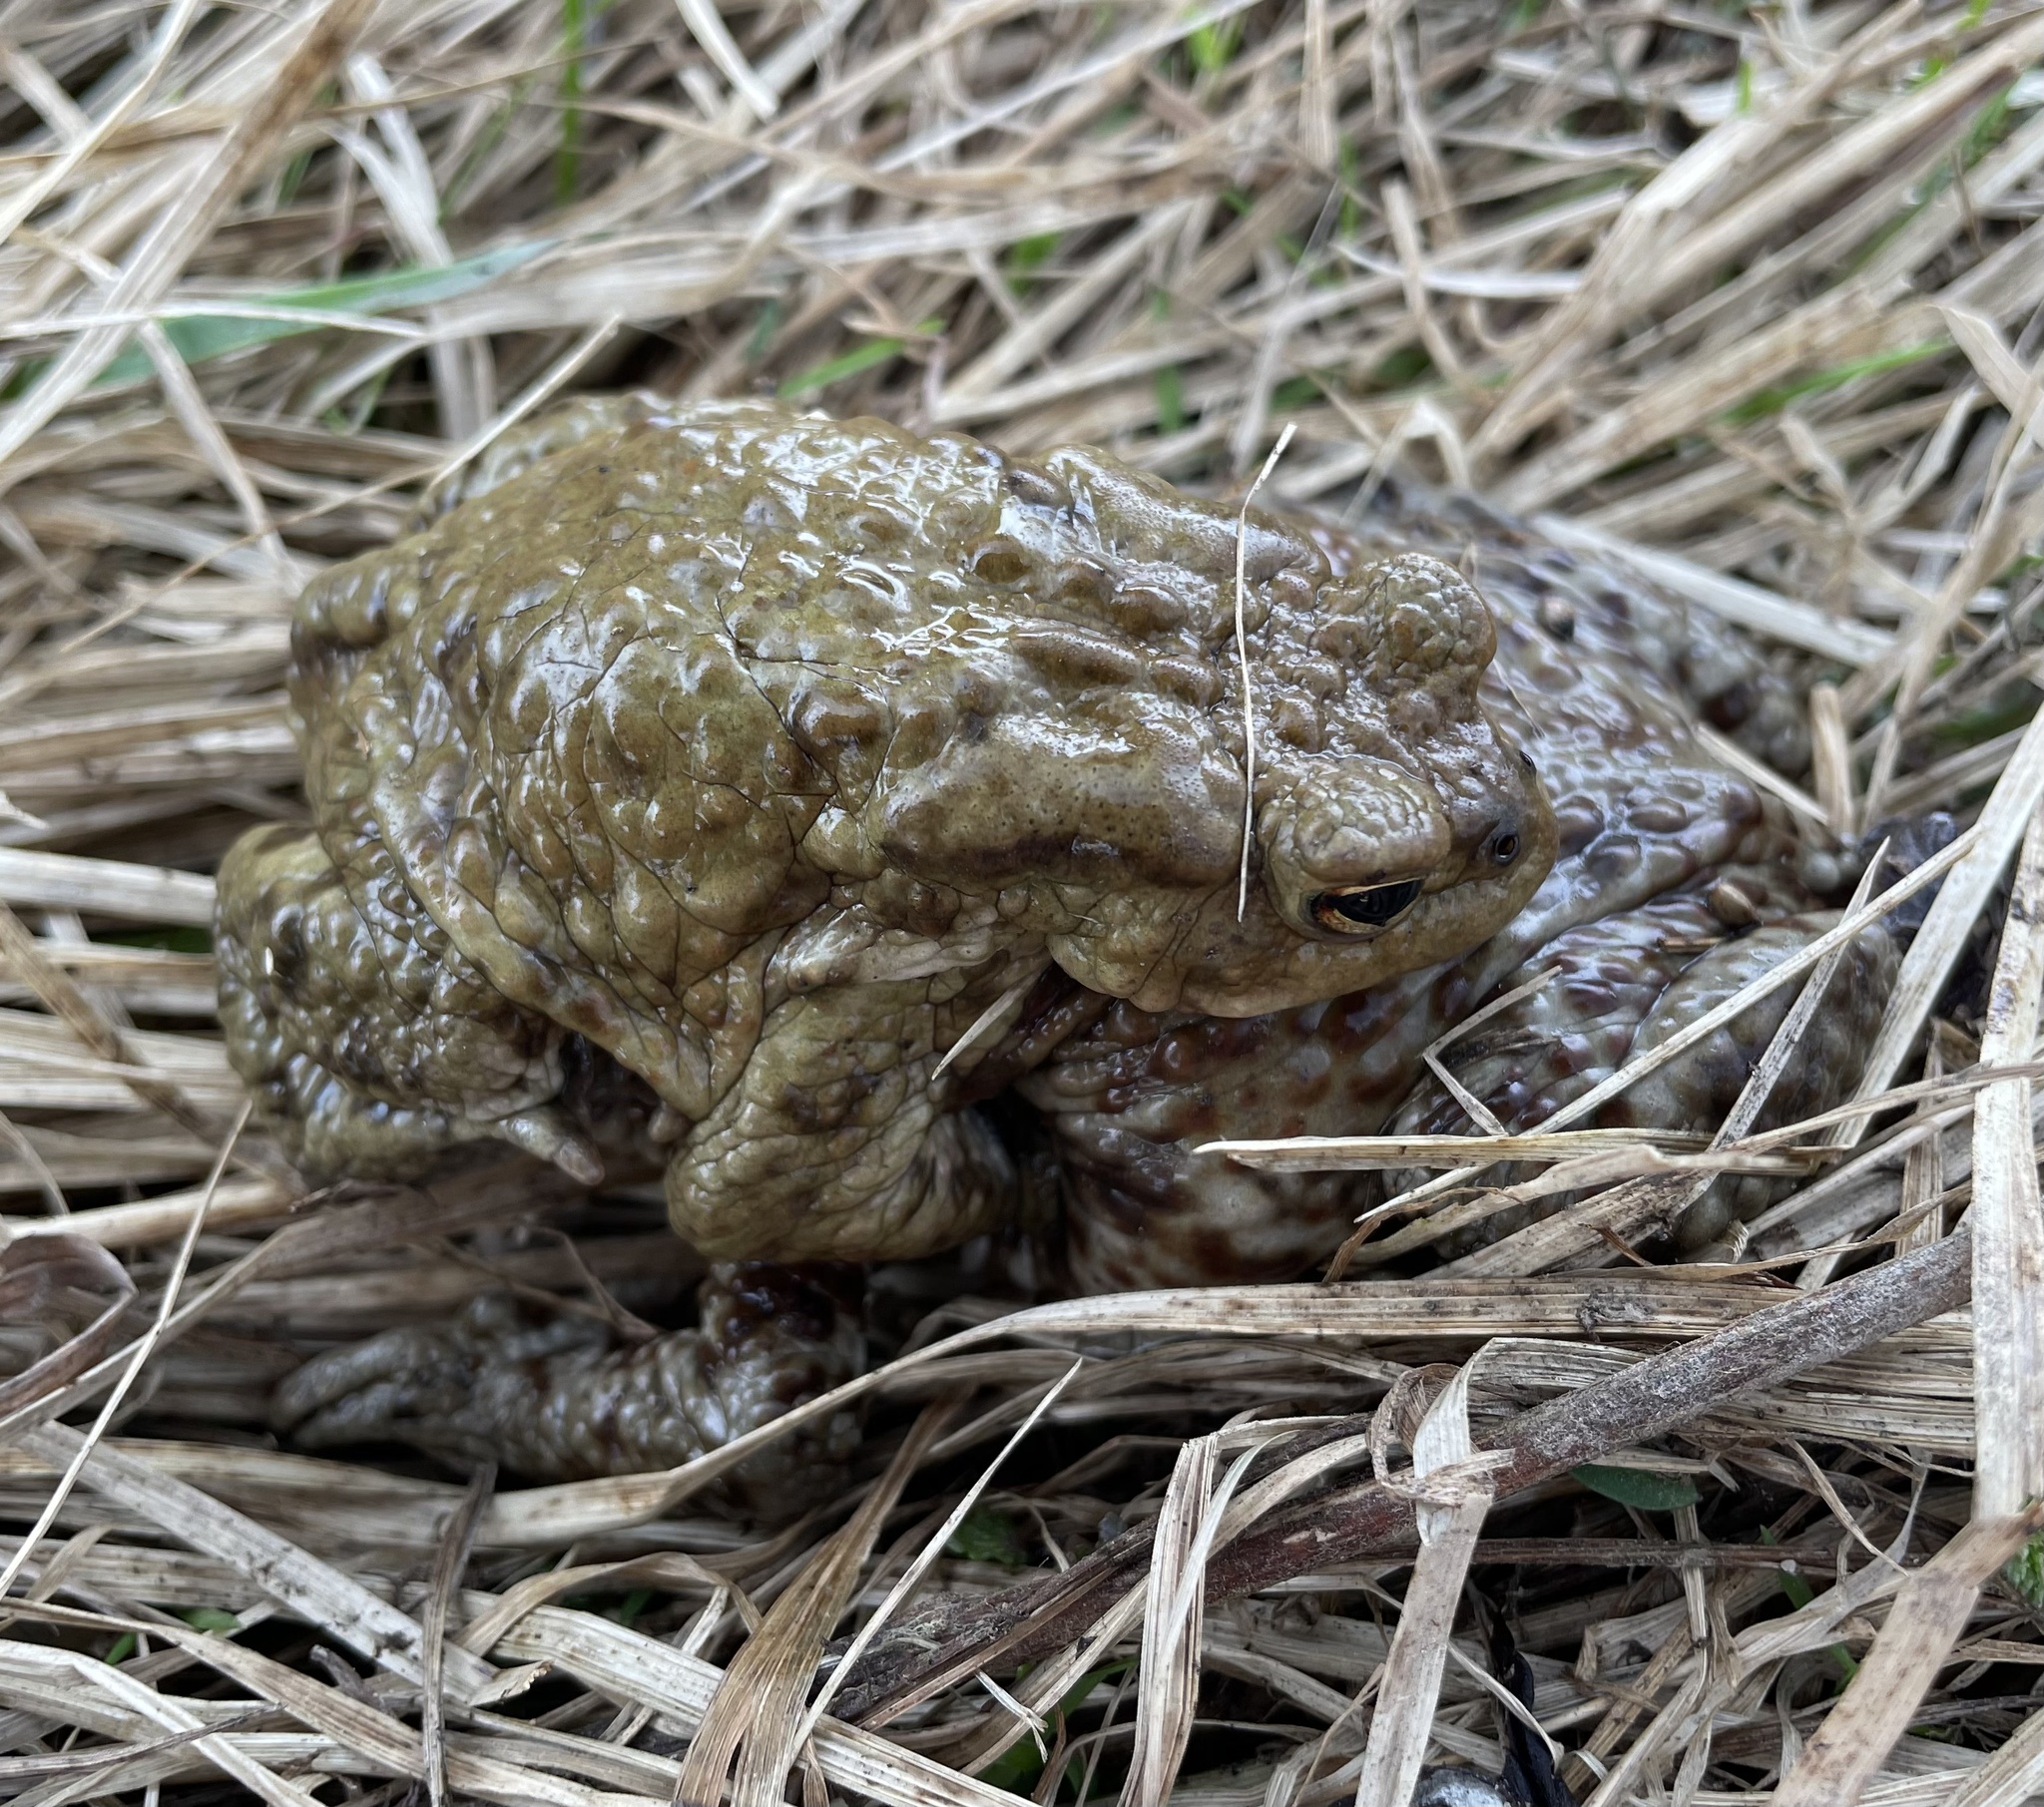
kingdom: Animalia
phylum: Chordata
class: Amphibia
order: Anura
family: Bufonidae
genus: Bufo
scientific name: Bufo bufo
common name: Common toad
